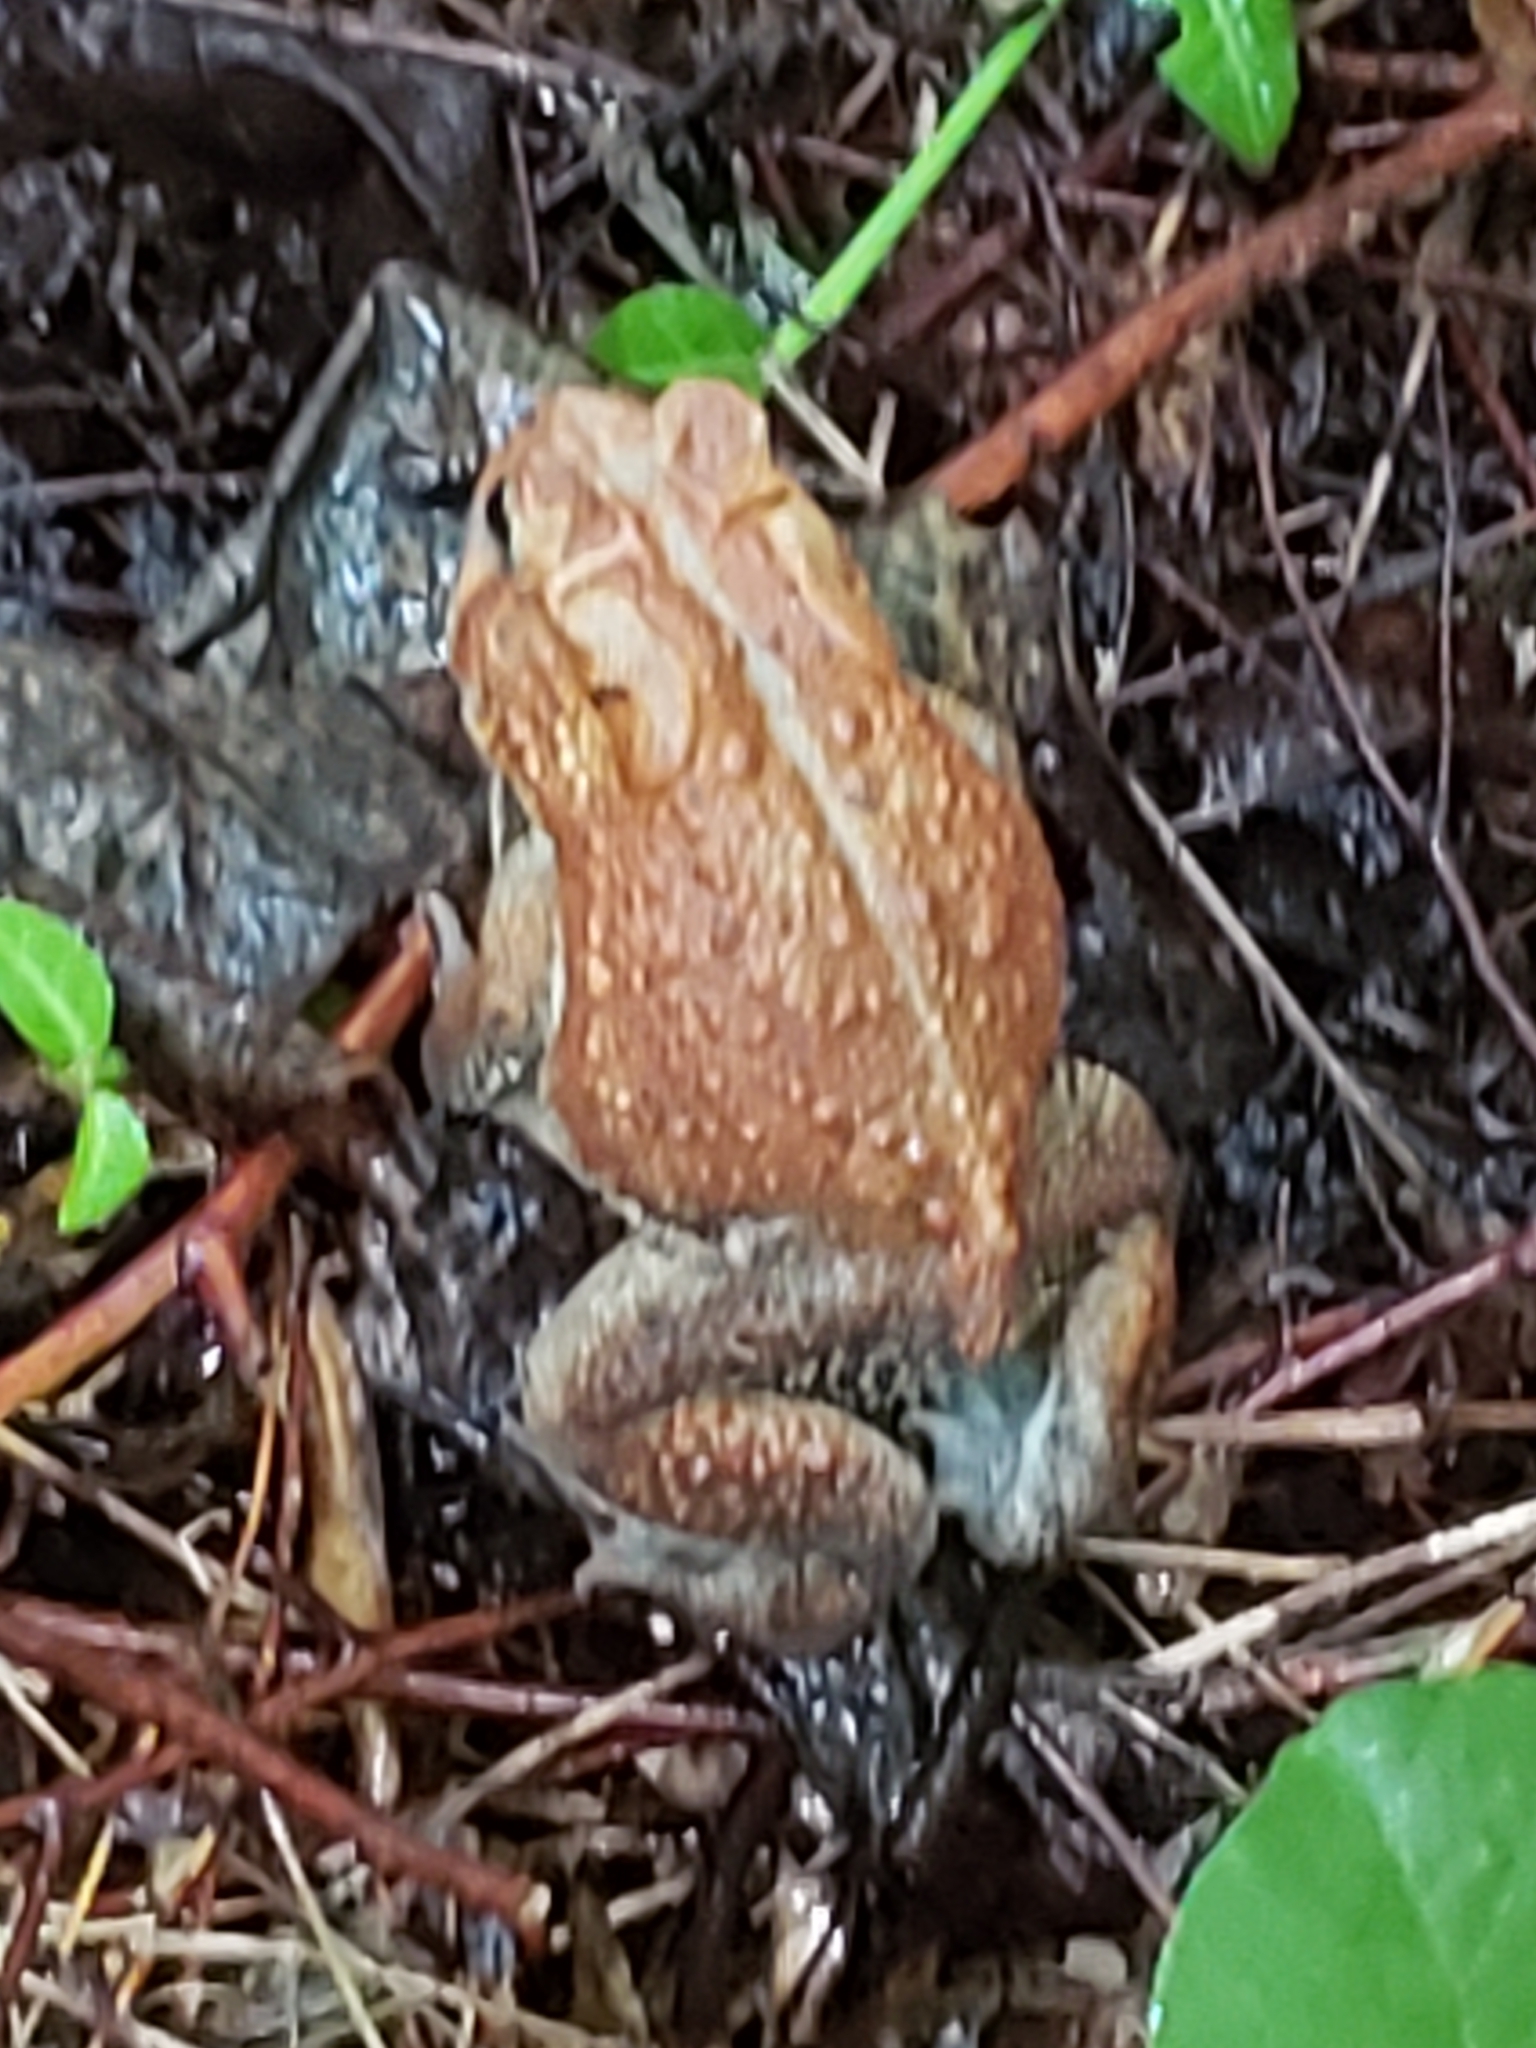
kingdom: Animalia
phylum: Chordata
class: Amphibia
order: Anura
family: Bufonidae
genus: Anaxyrus
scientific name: Anaxyrus americanus
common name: American toad
